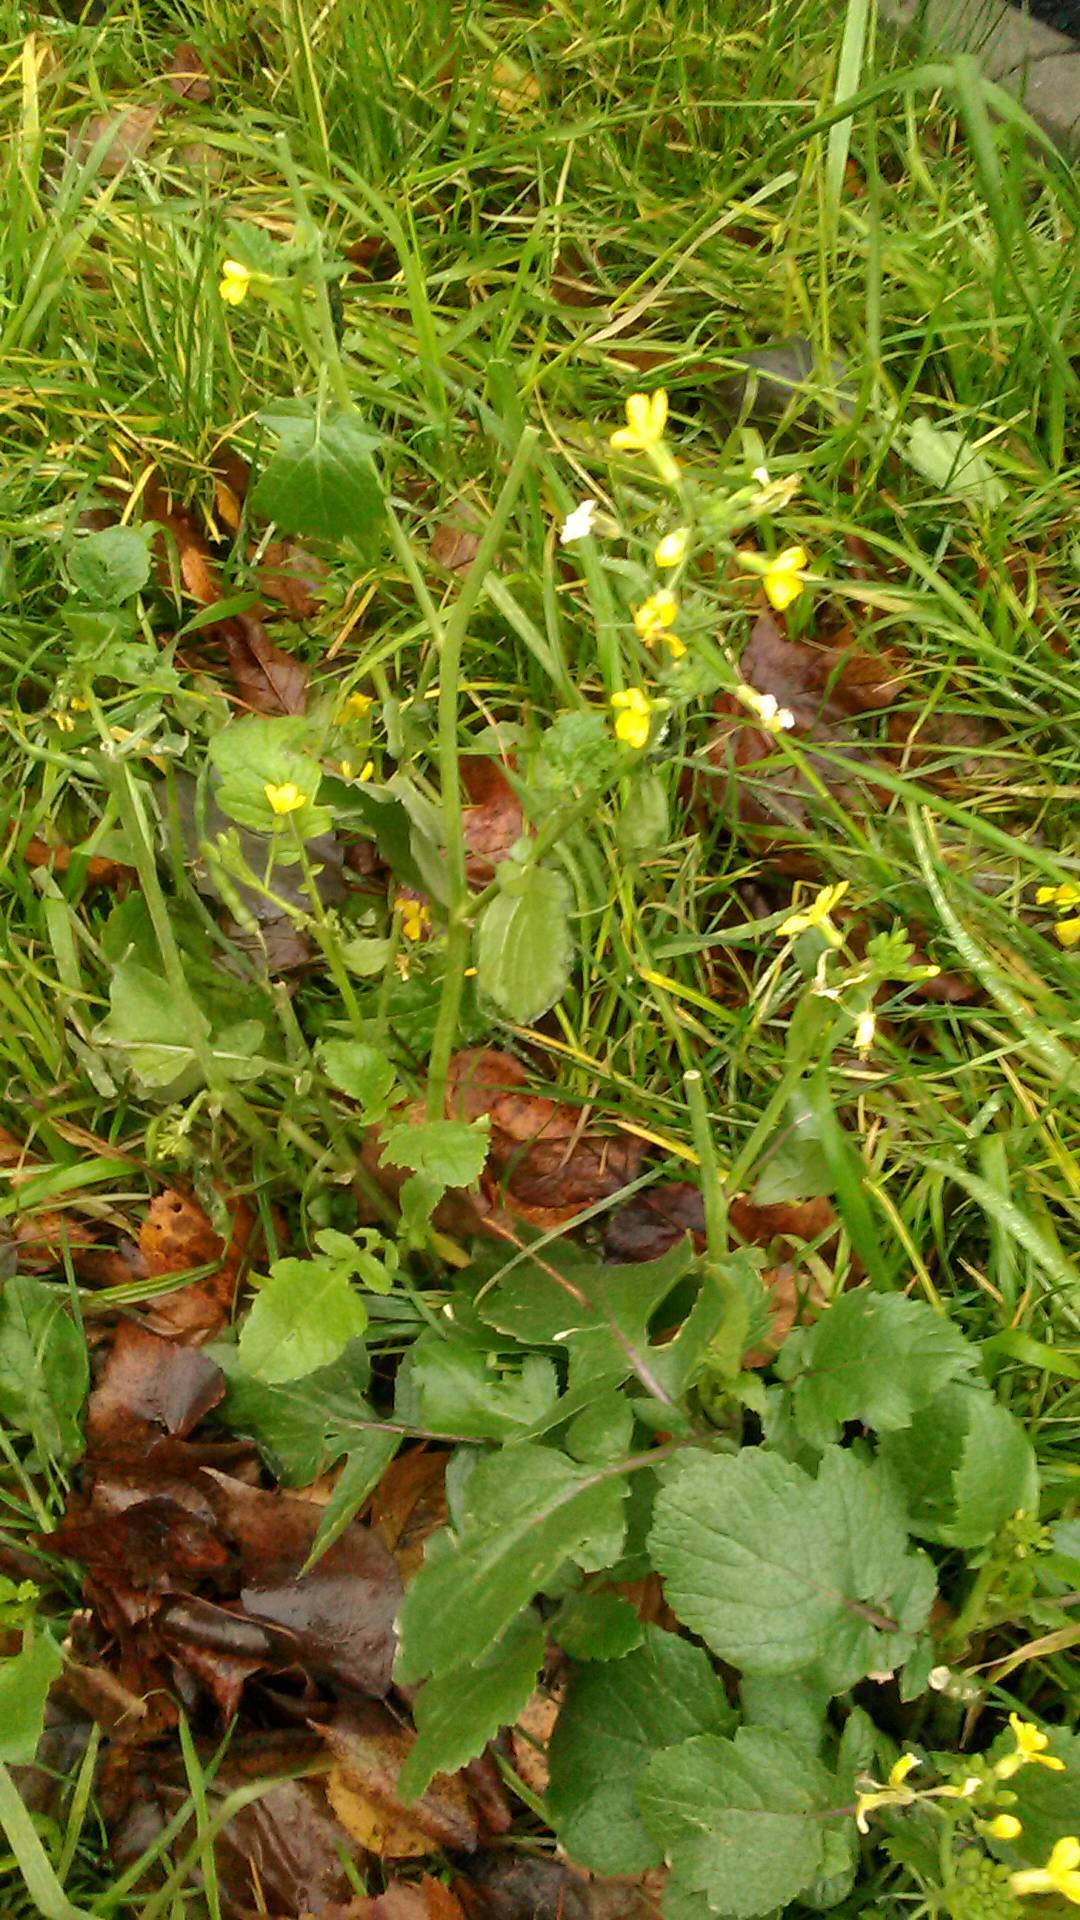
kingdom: Plantae
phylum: Tracheophyta
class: Magnoliopsida
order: Brassicales
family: Brassicaceae
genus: Sinapis
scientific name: Sinapis arvensis
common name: Charlock
